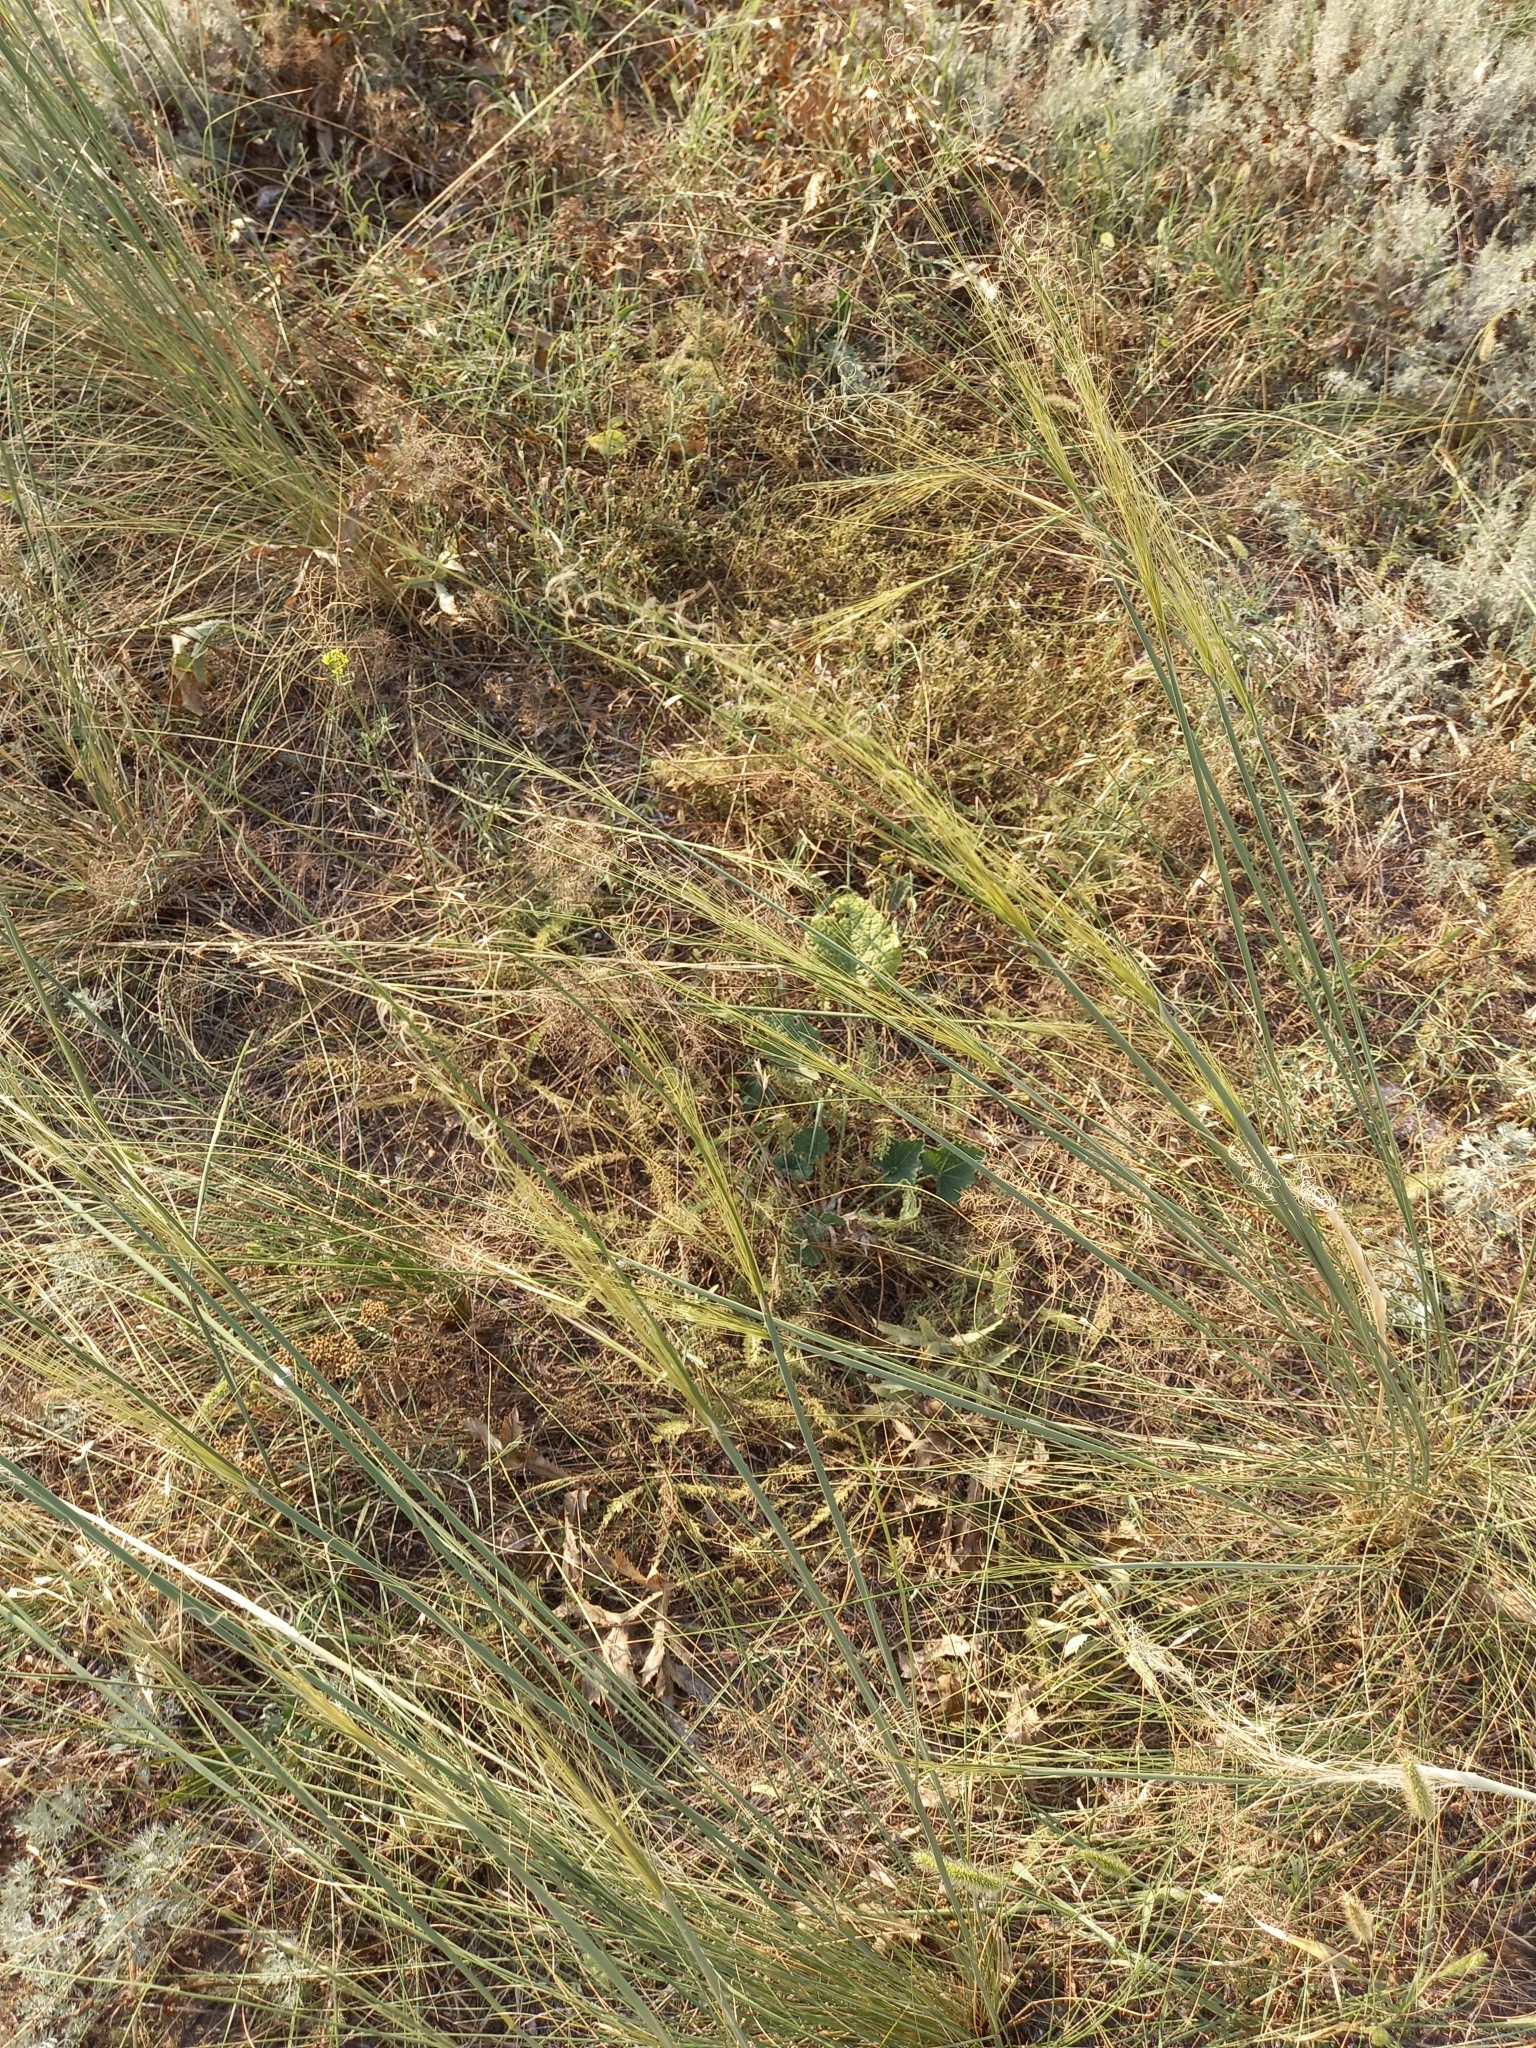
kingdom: Plantae
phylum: Tracheophyta
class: Liliopsida
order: Poales
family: Poaceae
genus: Stipa
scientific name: Stipa capillata
